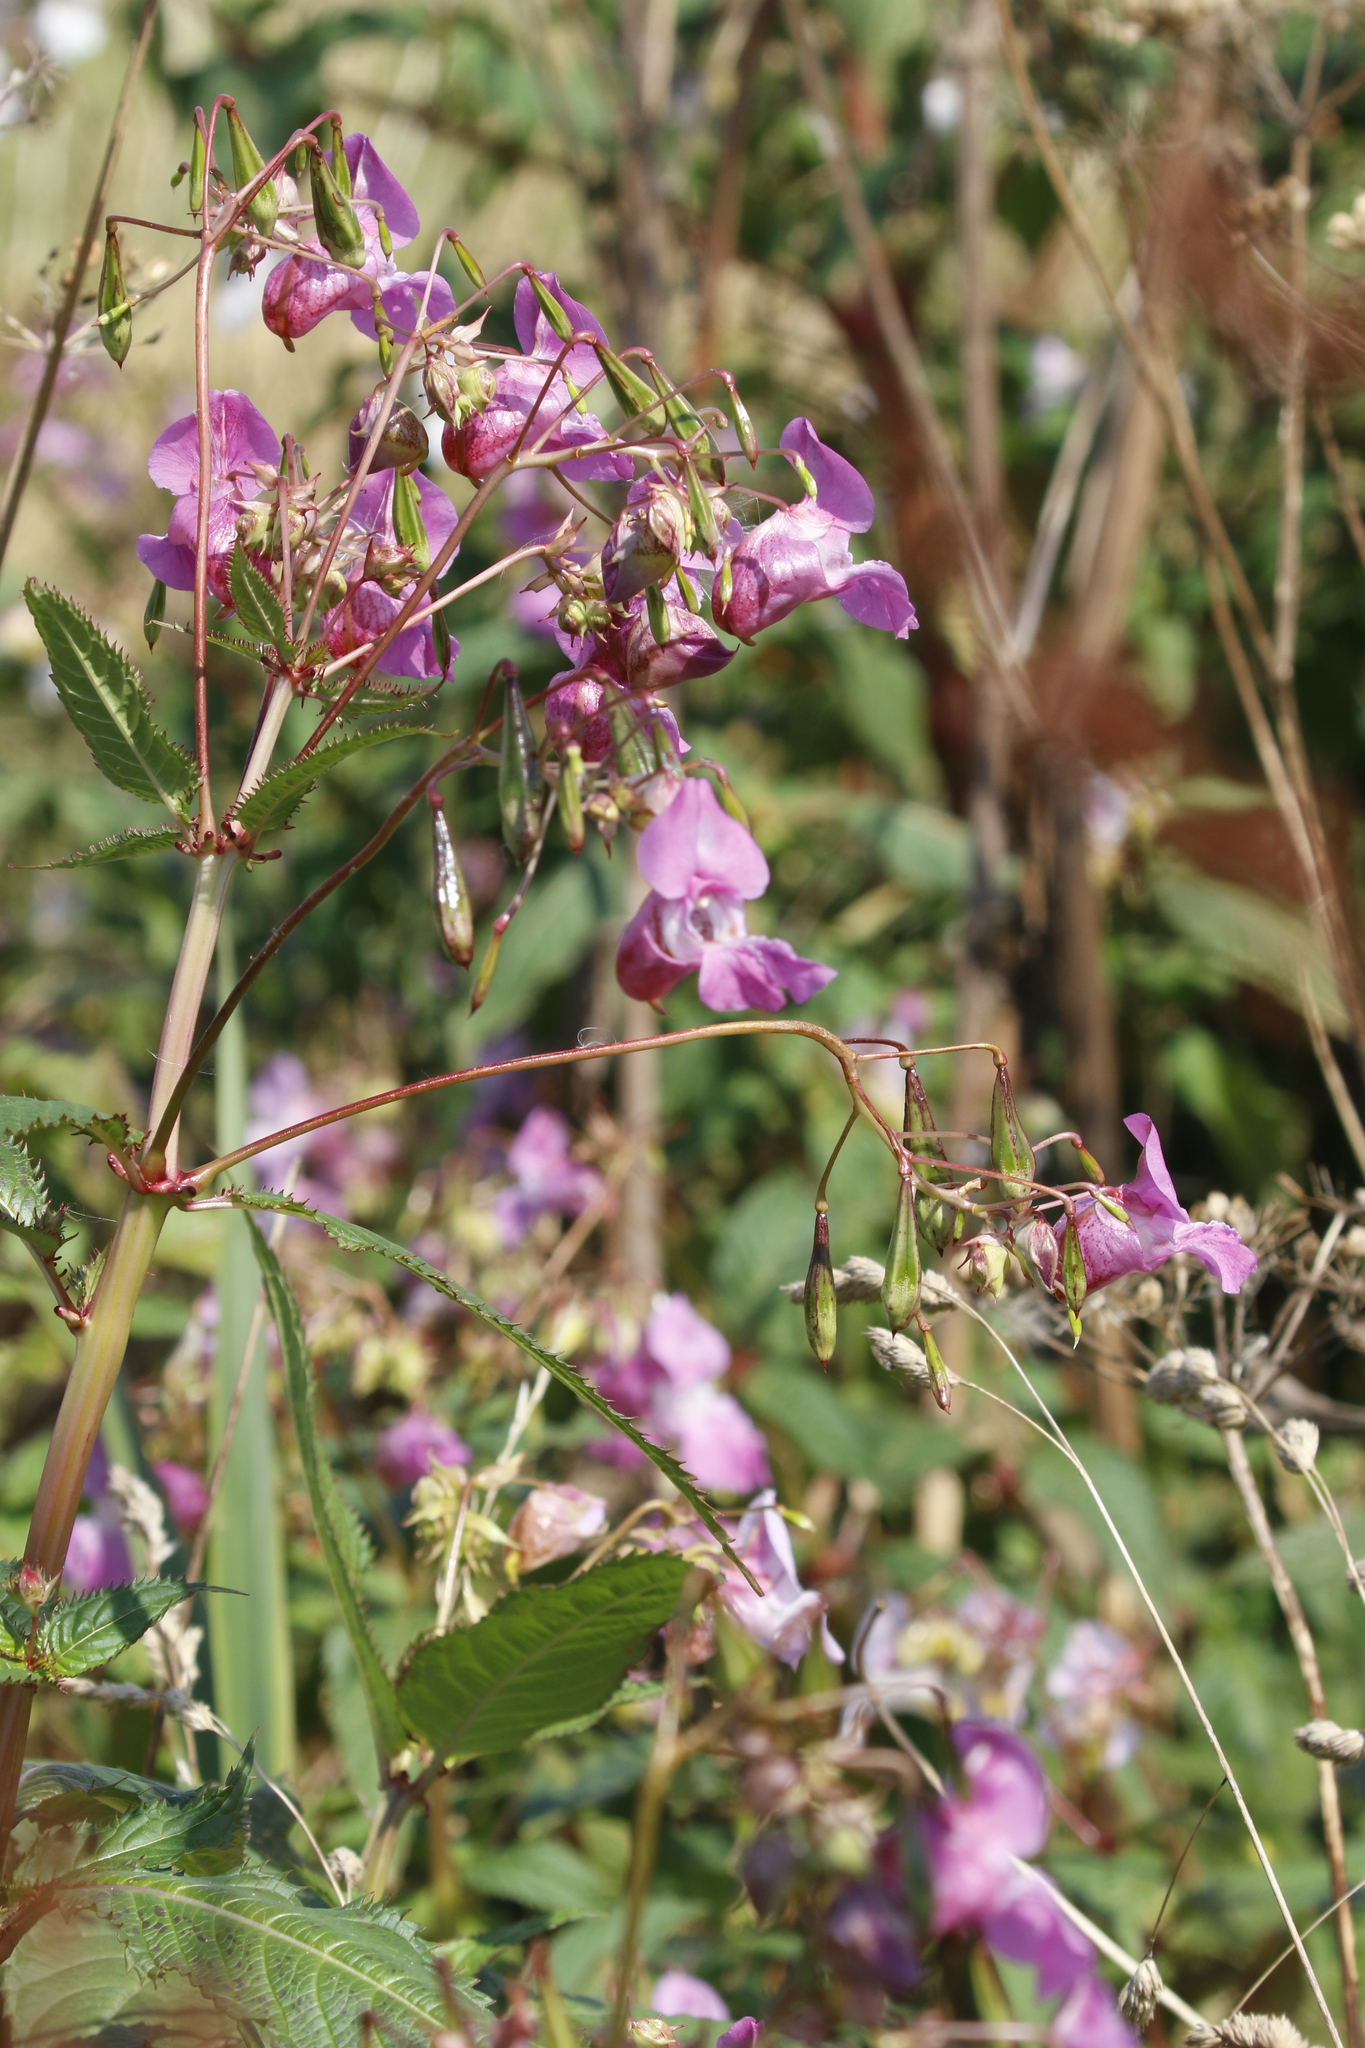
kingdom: Plantae
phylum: Tracheophyta
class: Magnoliopsida
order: Ericales
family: Balsaminaceae
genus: Impatiens
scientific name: Impatiens glandulifera
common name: Himalayan balsam
